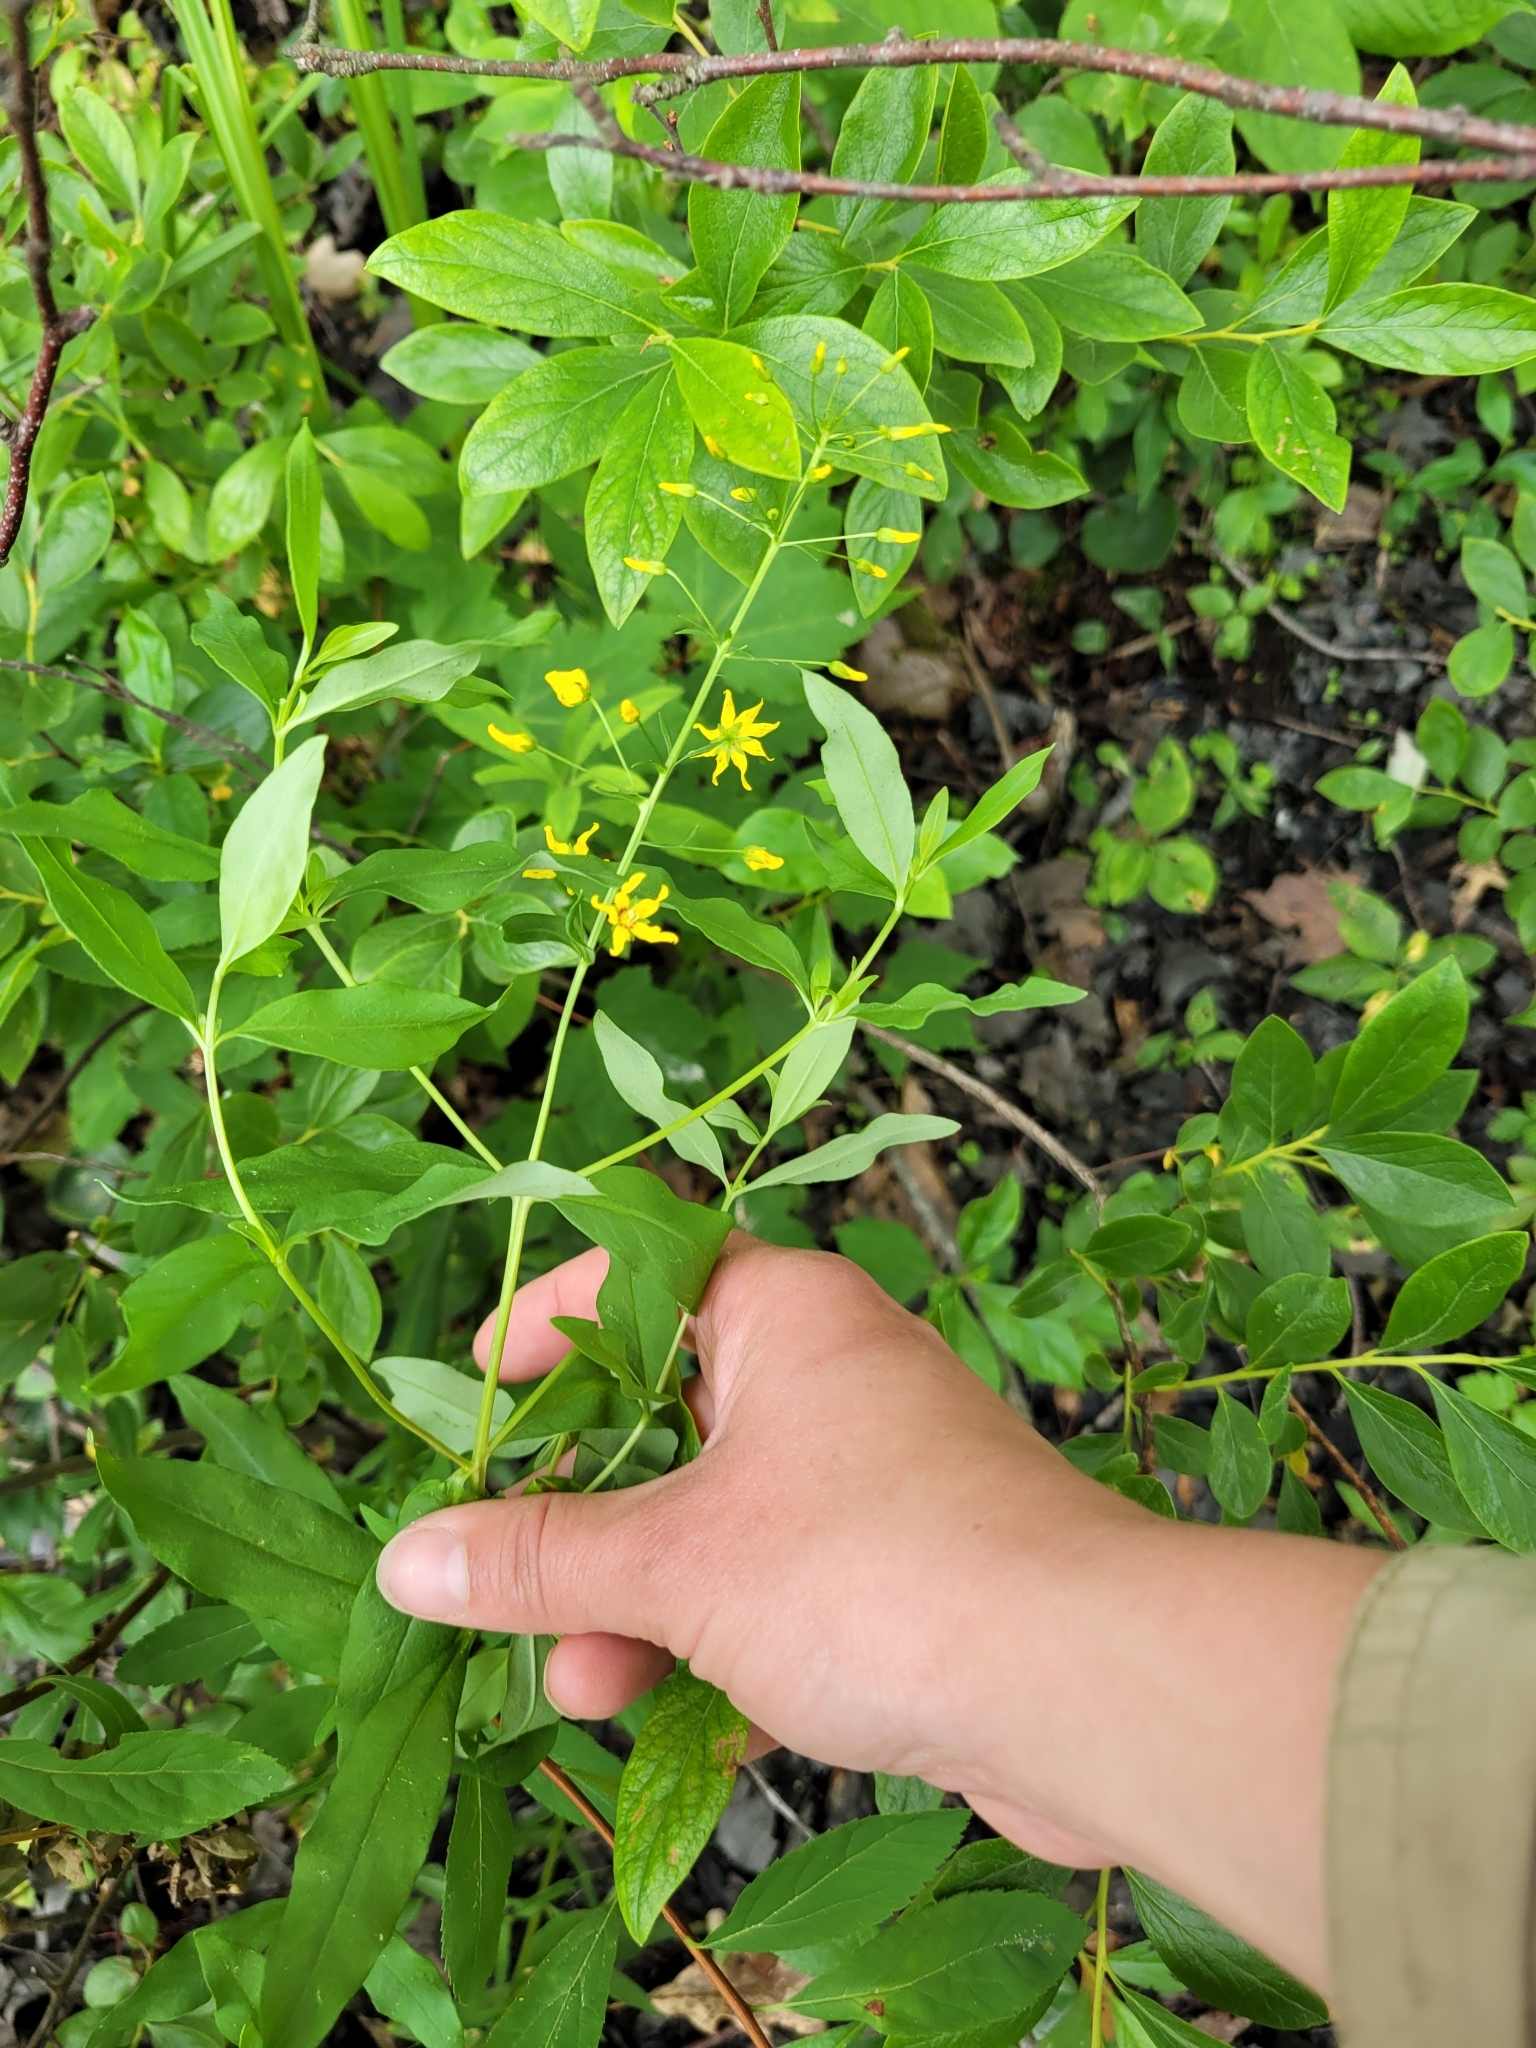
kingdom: Plantae
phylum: Tracheophyta
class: Magnoliopsida
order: Ericales
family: Primulaceae
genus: Lysimachia
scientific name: Lysimachia terrestris
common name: Lake loosestrife
